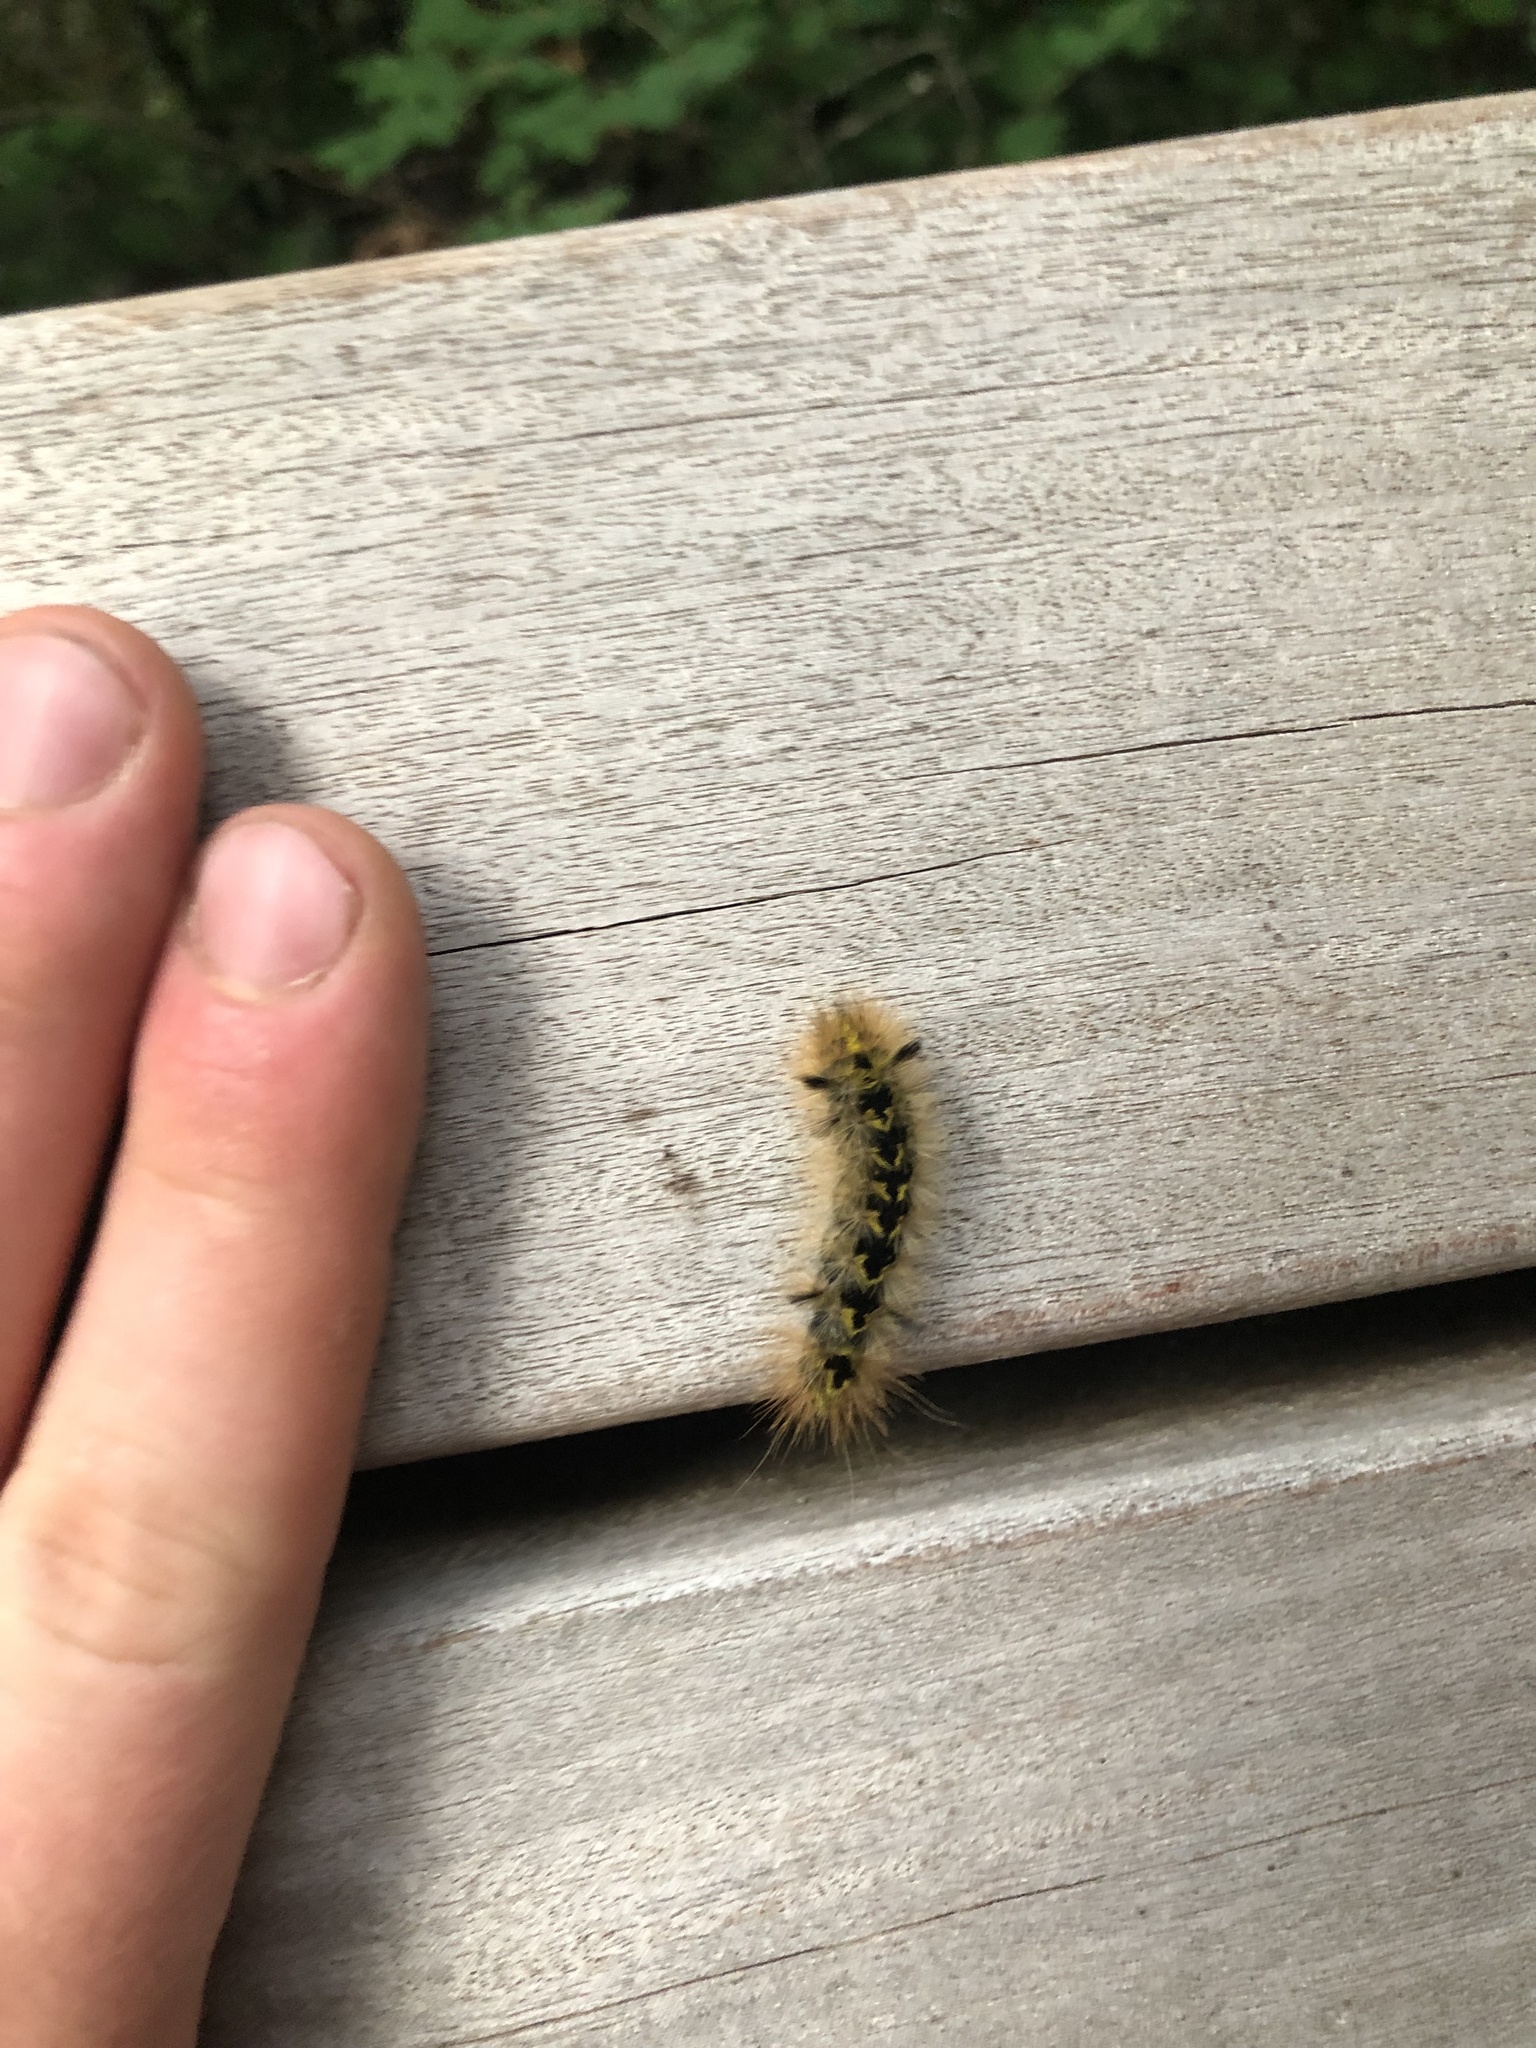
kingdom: Animalia
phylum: Arthropoda
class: Insecta
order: Lepidoptera
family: Erebidae
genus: Lophocampa
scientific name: Lophocampa argentata
